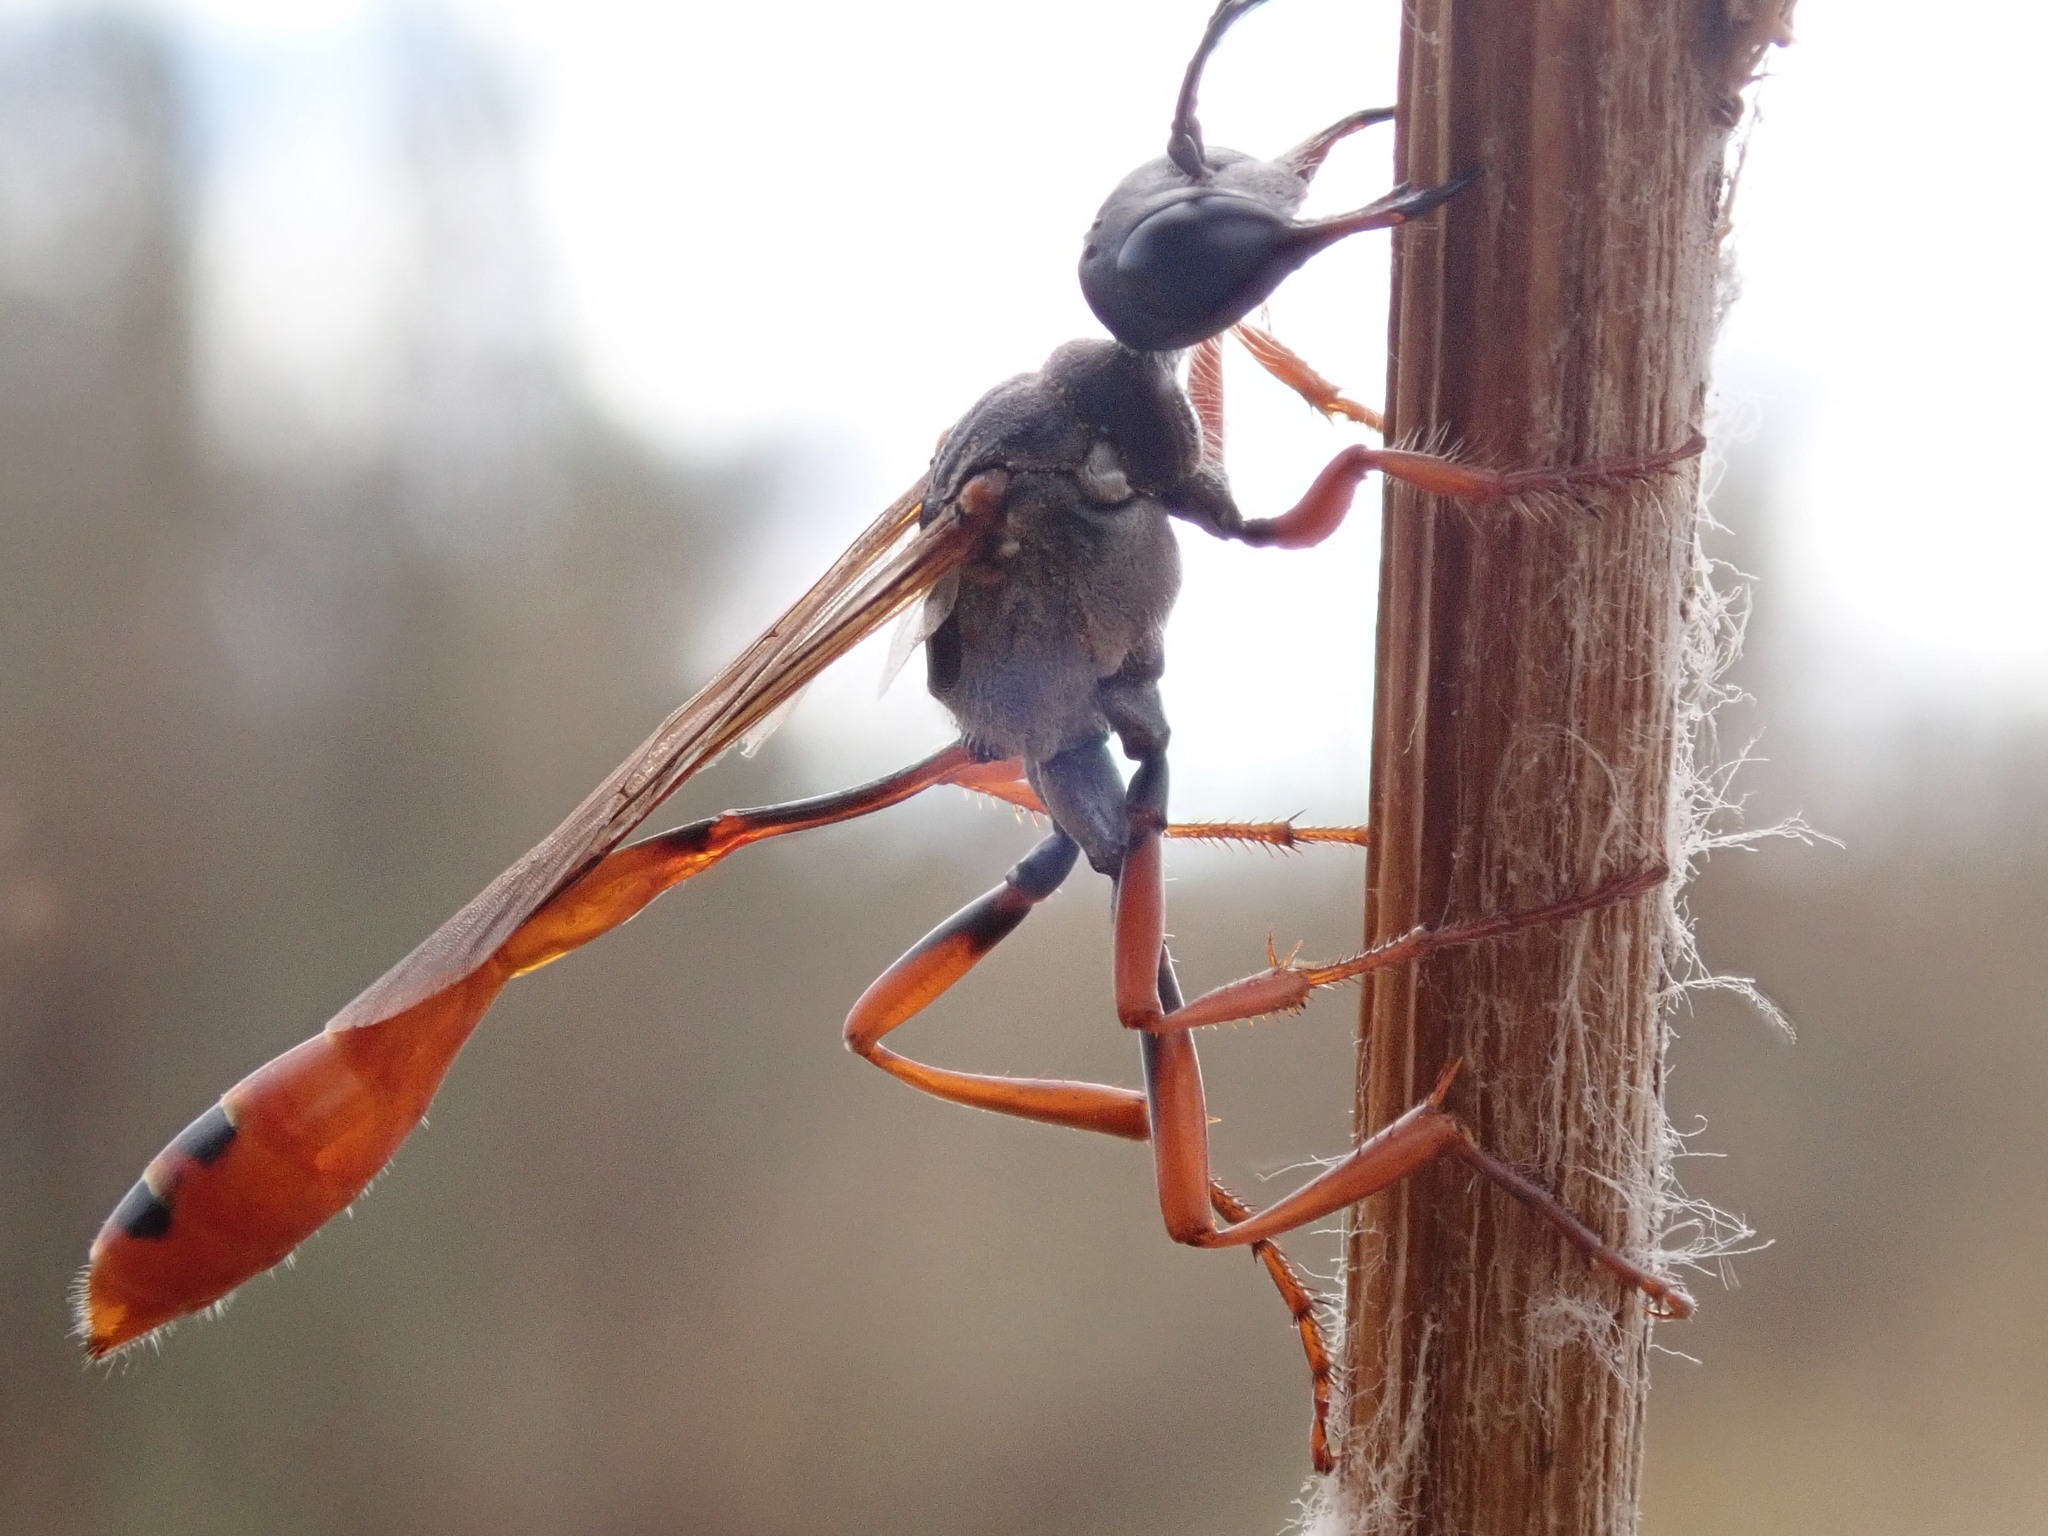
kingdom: Animalia
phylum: Arthropoda
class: Insecta
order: Hymenoptera
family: Sphecidae
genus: Ammophila
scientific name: Ammophila parkeri
